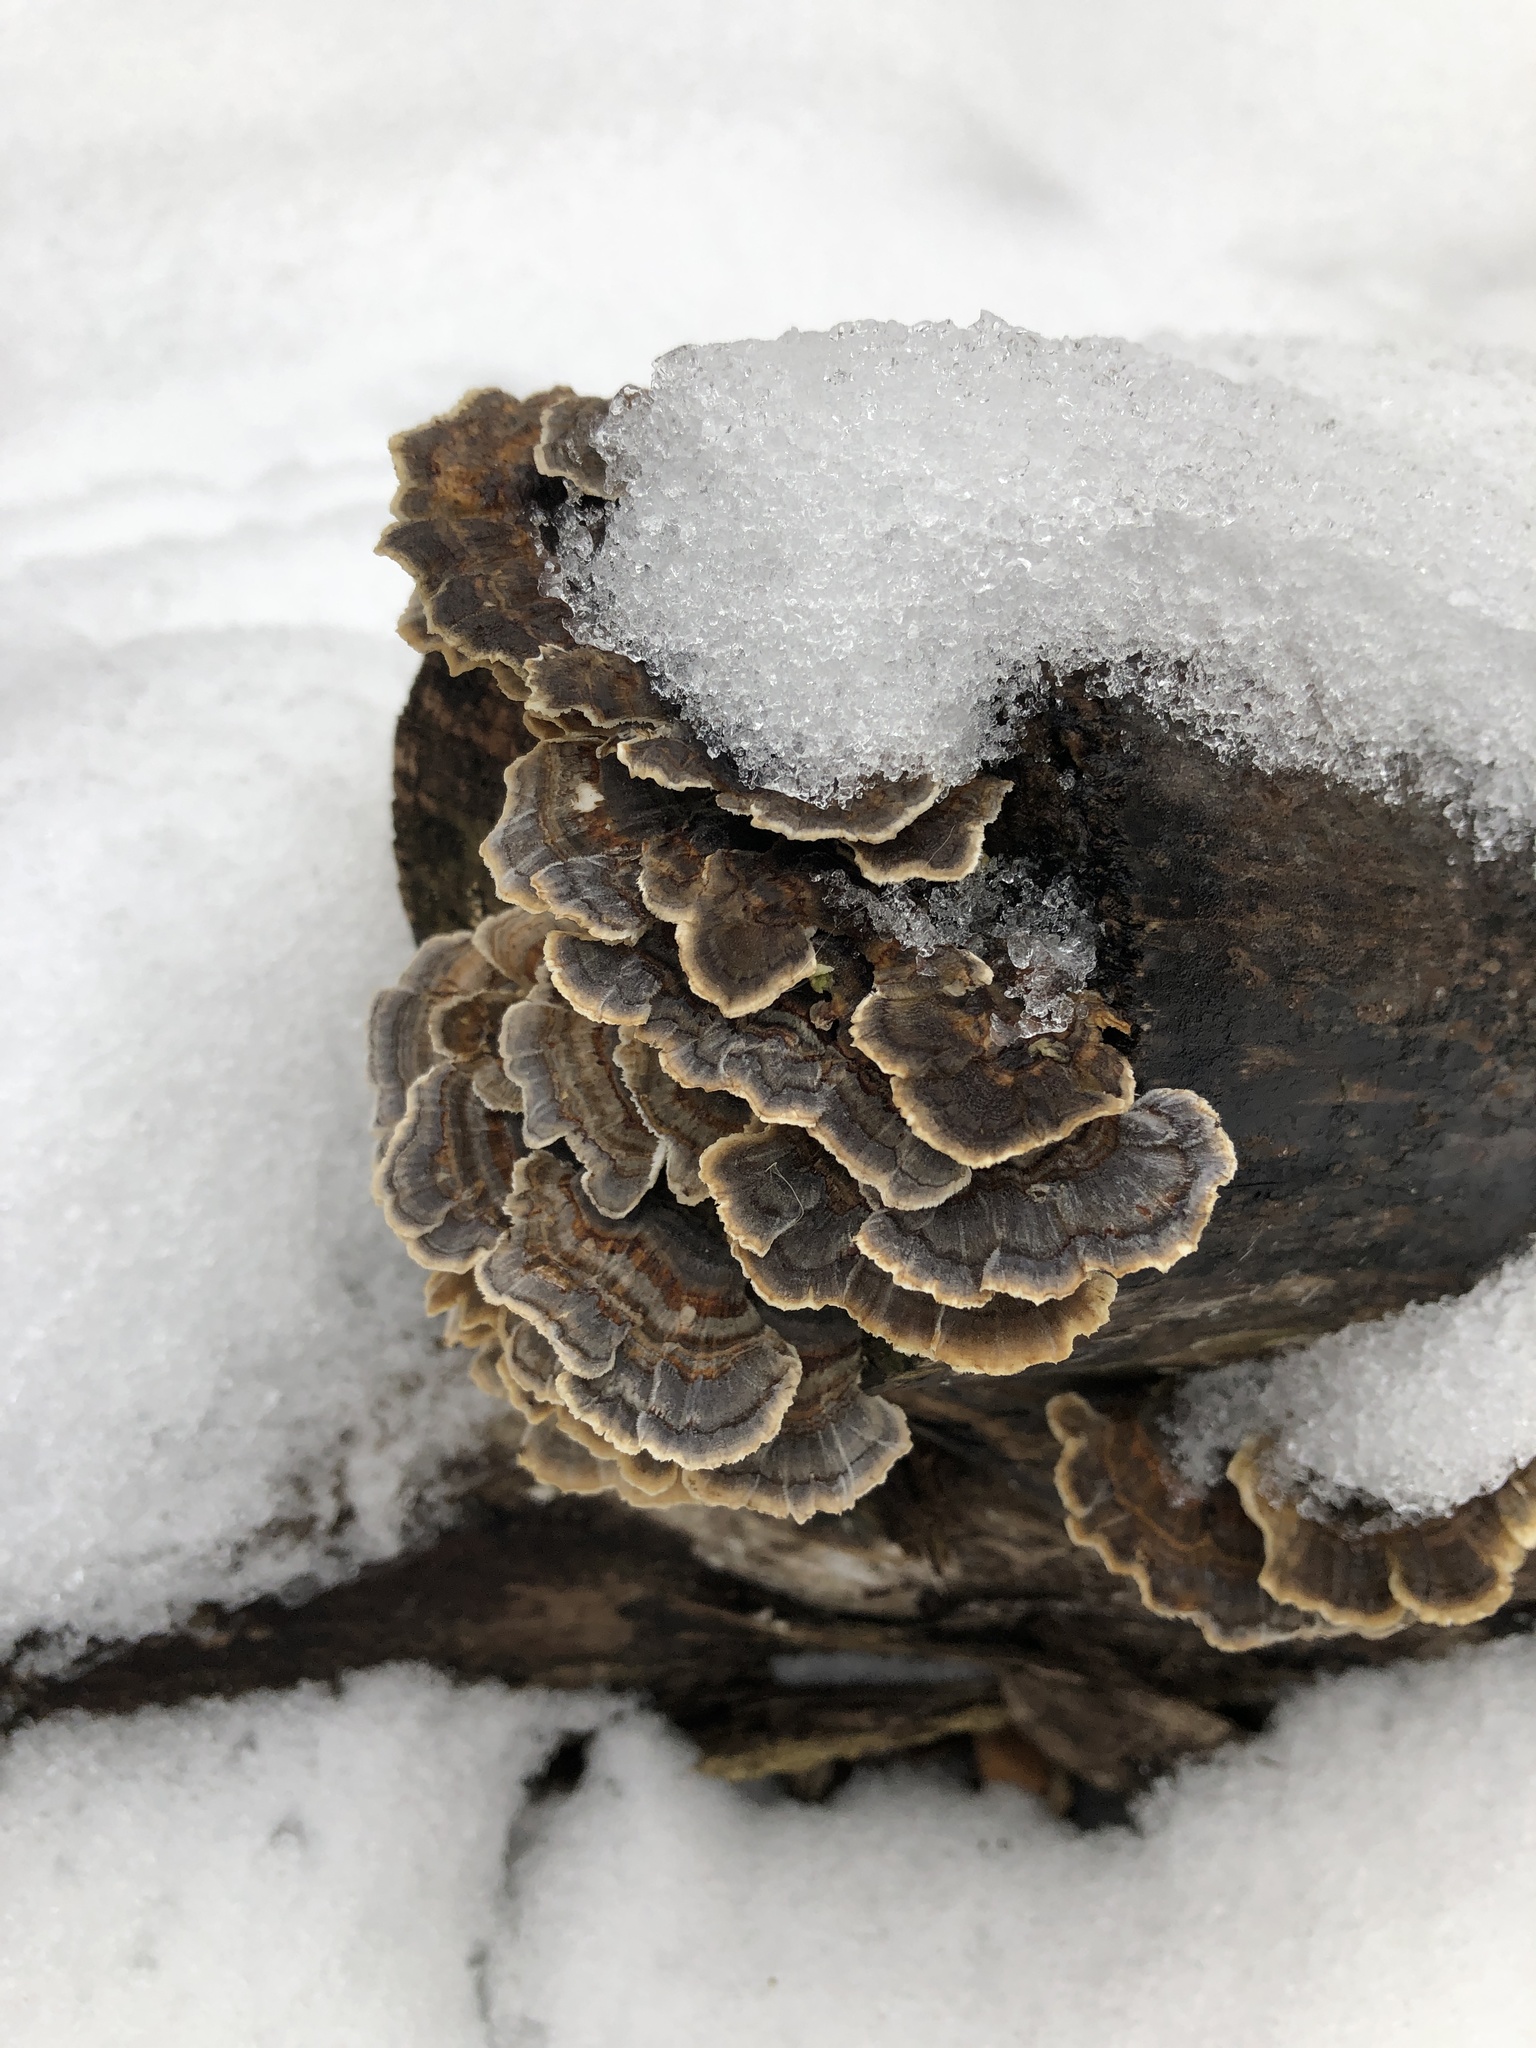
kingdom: Fungi
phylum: Basidiomycota
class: Agaricomycetes
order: Polyporales
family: Polyporaceae
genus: Trametes
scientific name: Trametes versicolor
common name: Turkeytail
